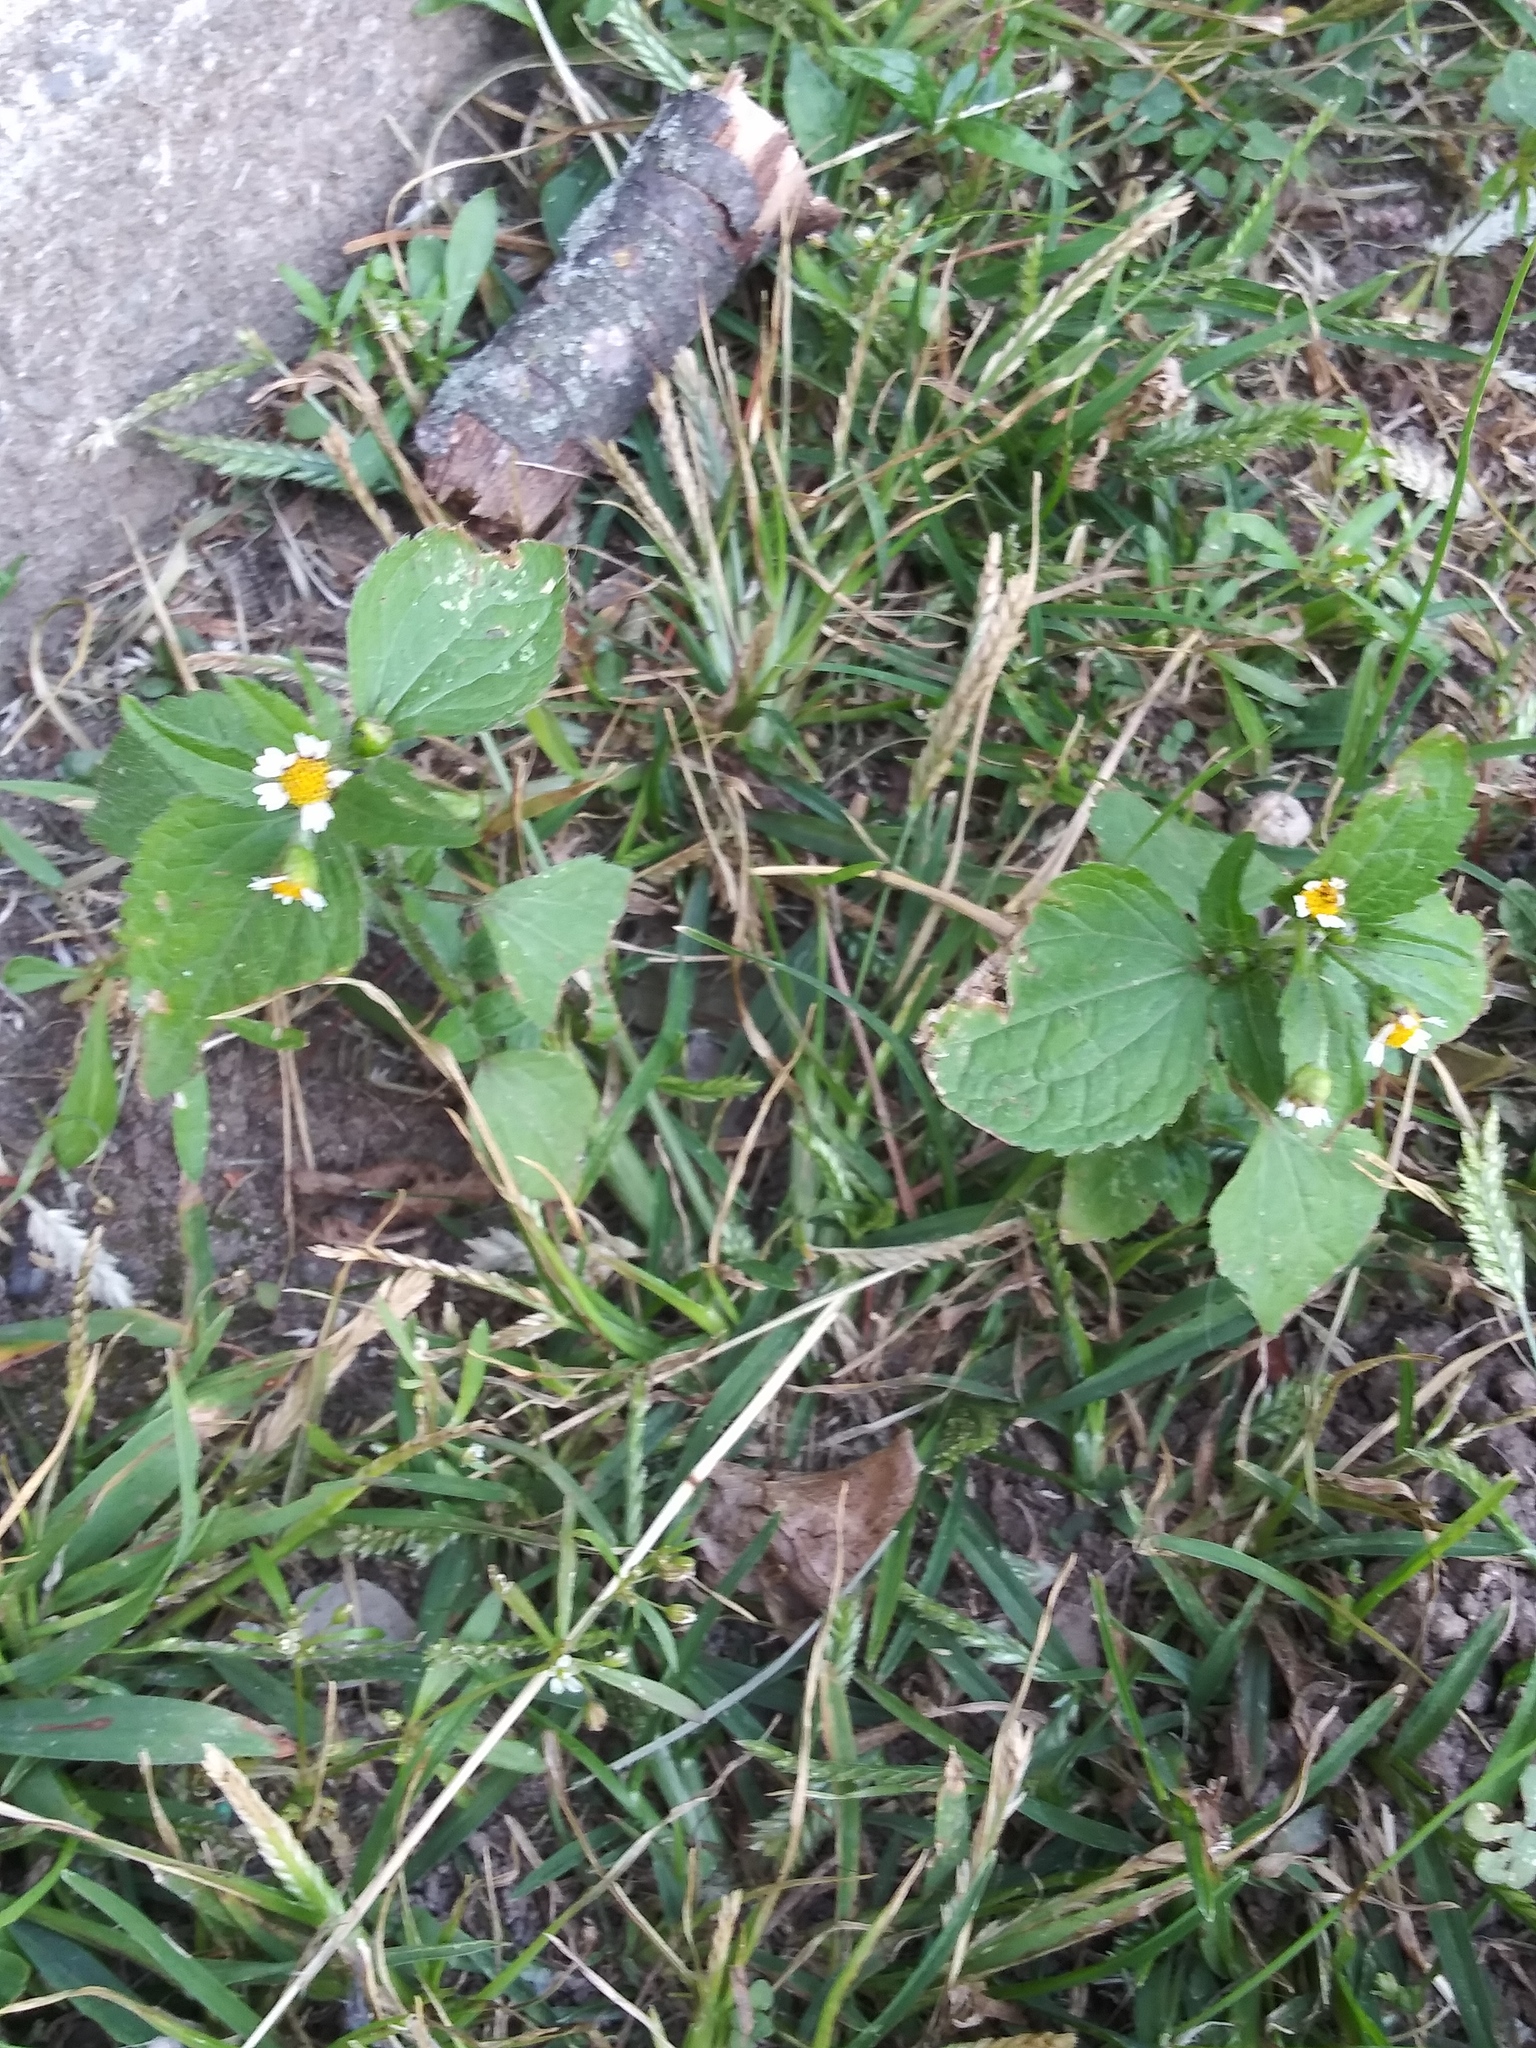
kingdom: Plantae
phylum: Tracheophyta
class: Magnoliopsida
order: Asterales
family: Asteraceae
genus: Galinsoga
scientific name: Galinsoga quadriradiata
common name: Shaggy soldier
